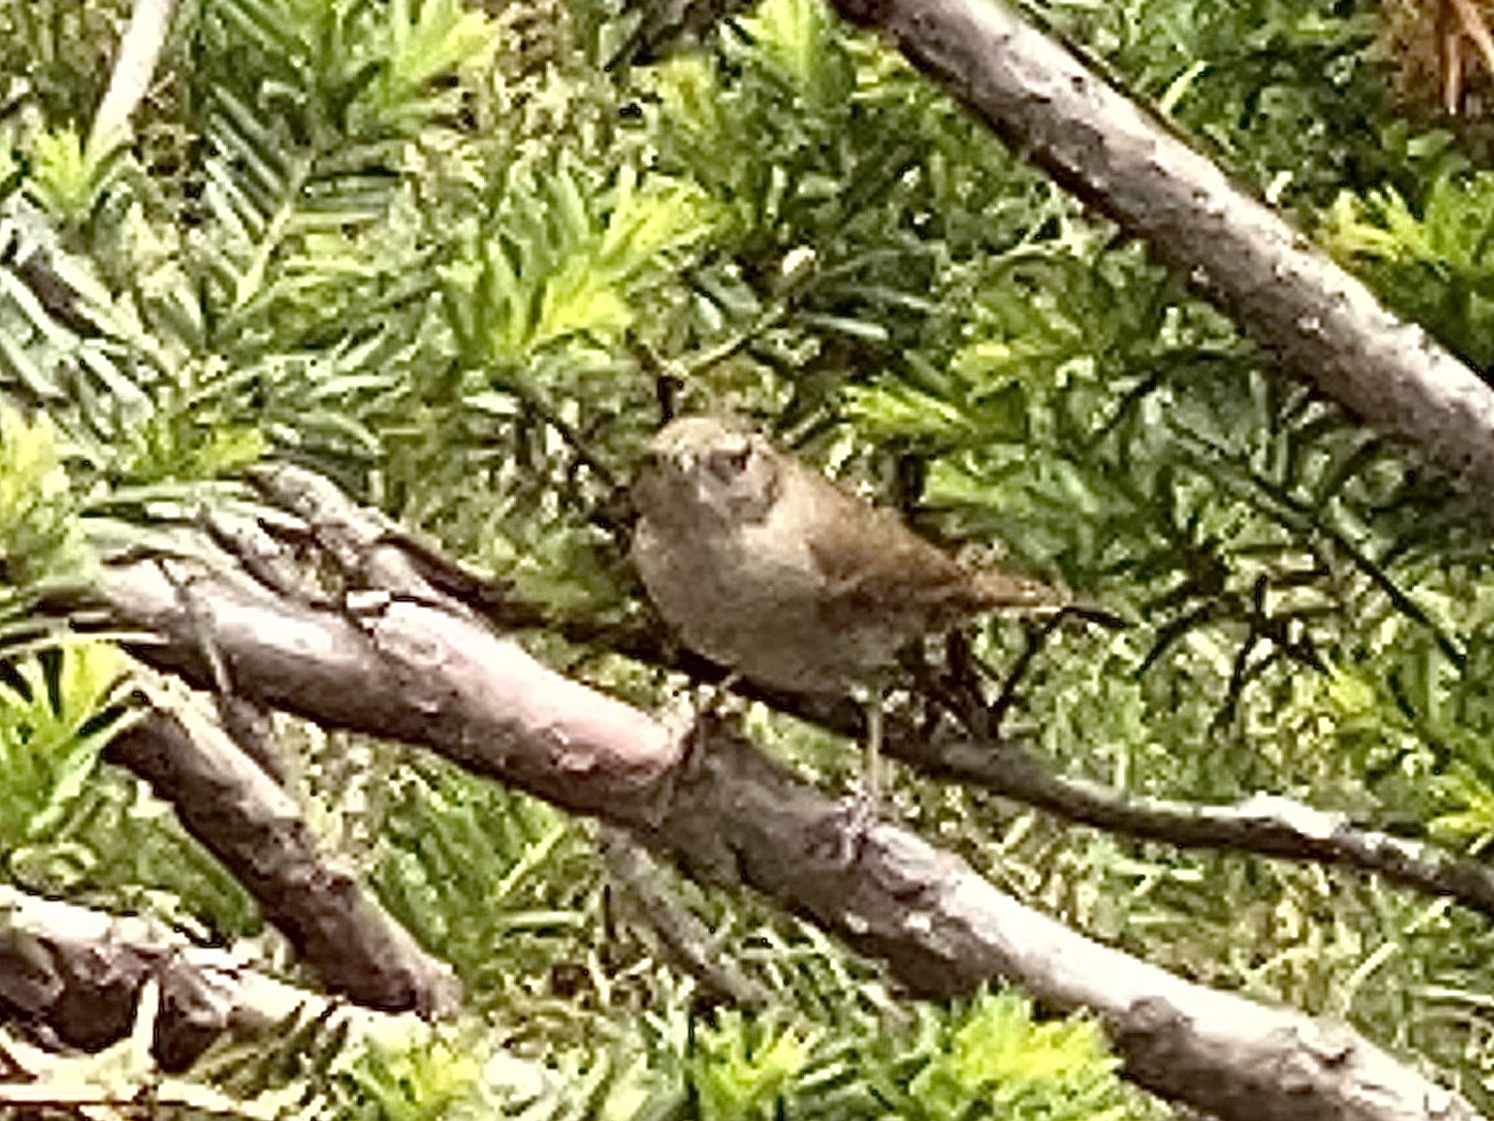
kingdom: Animalia
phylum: Chordata
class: Aves
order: Passeriformes
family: Troglodytidae
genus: Troglodytes
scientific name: Troglodytes aedon
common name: House wren
